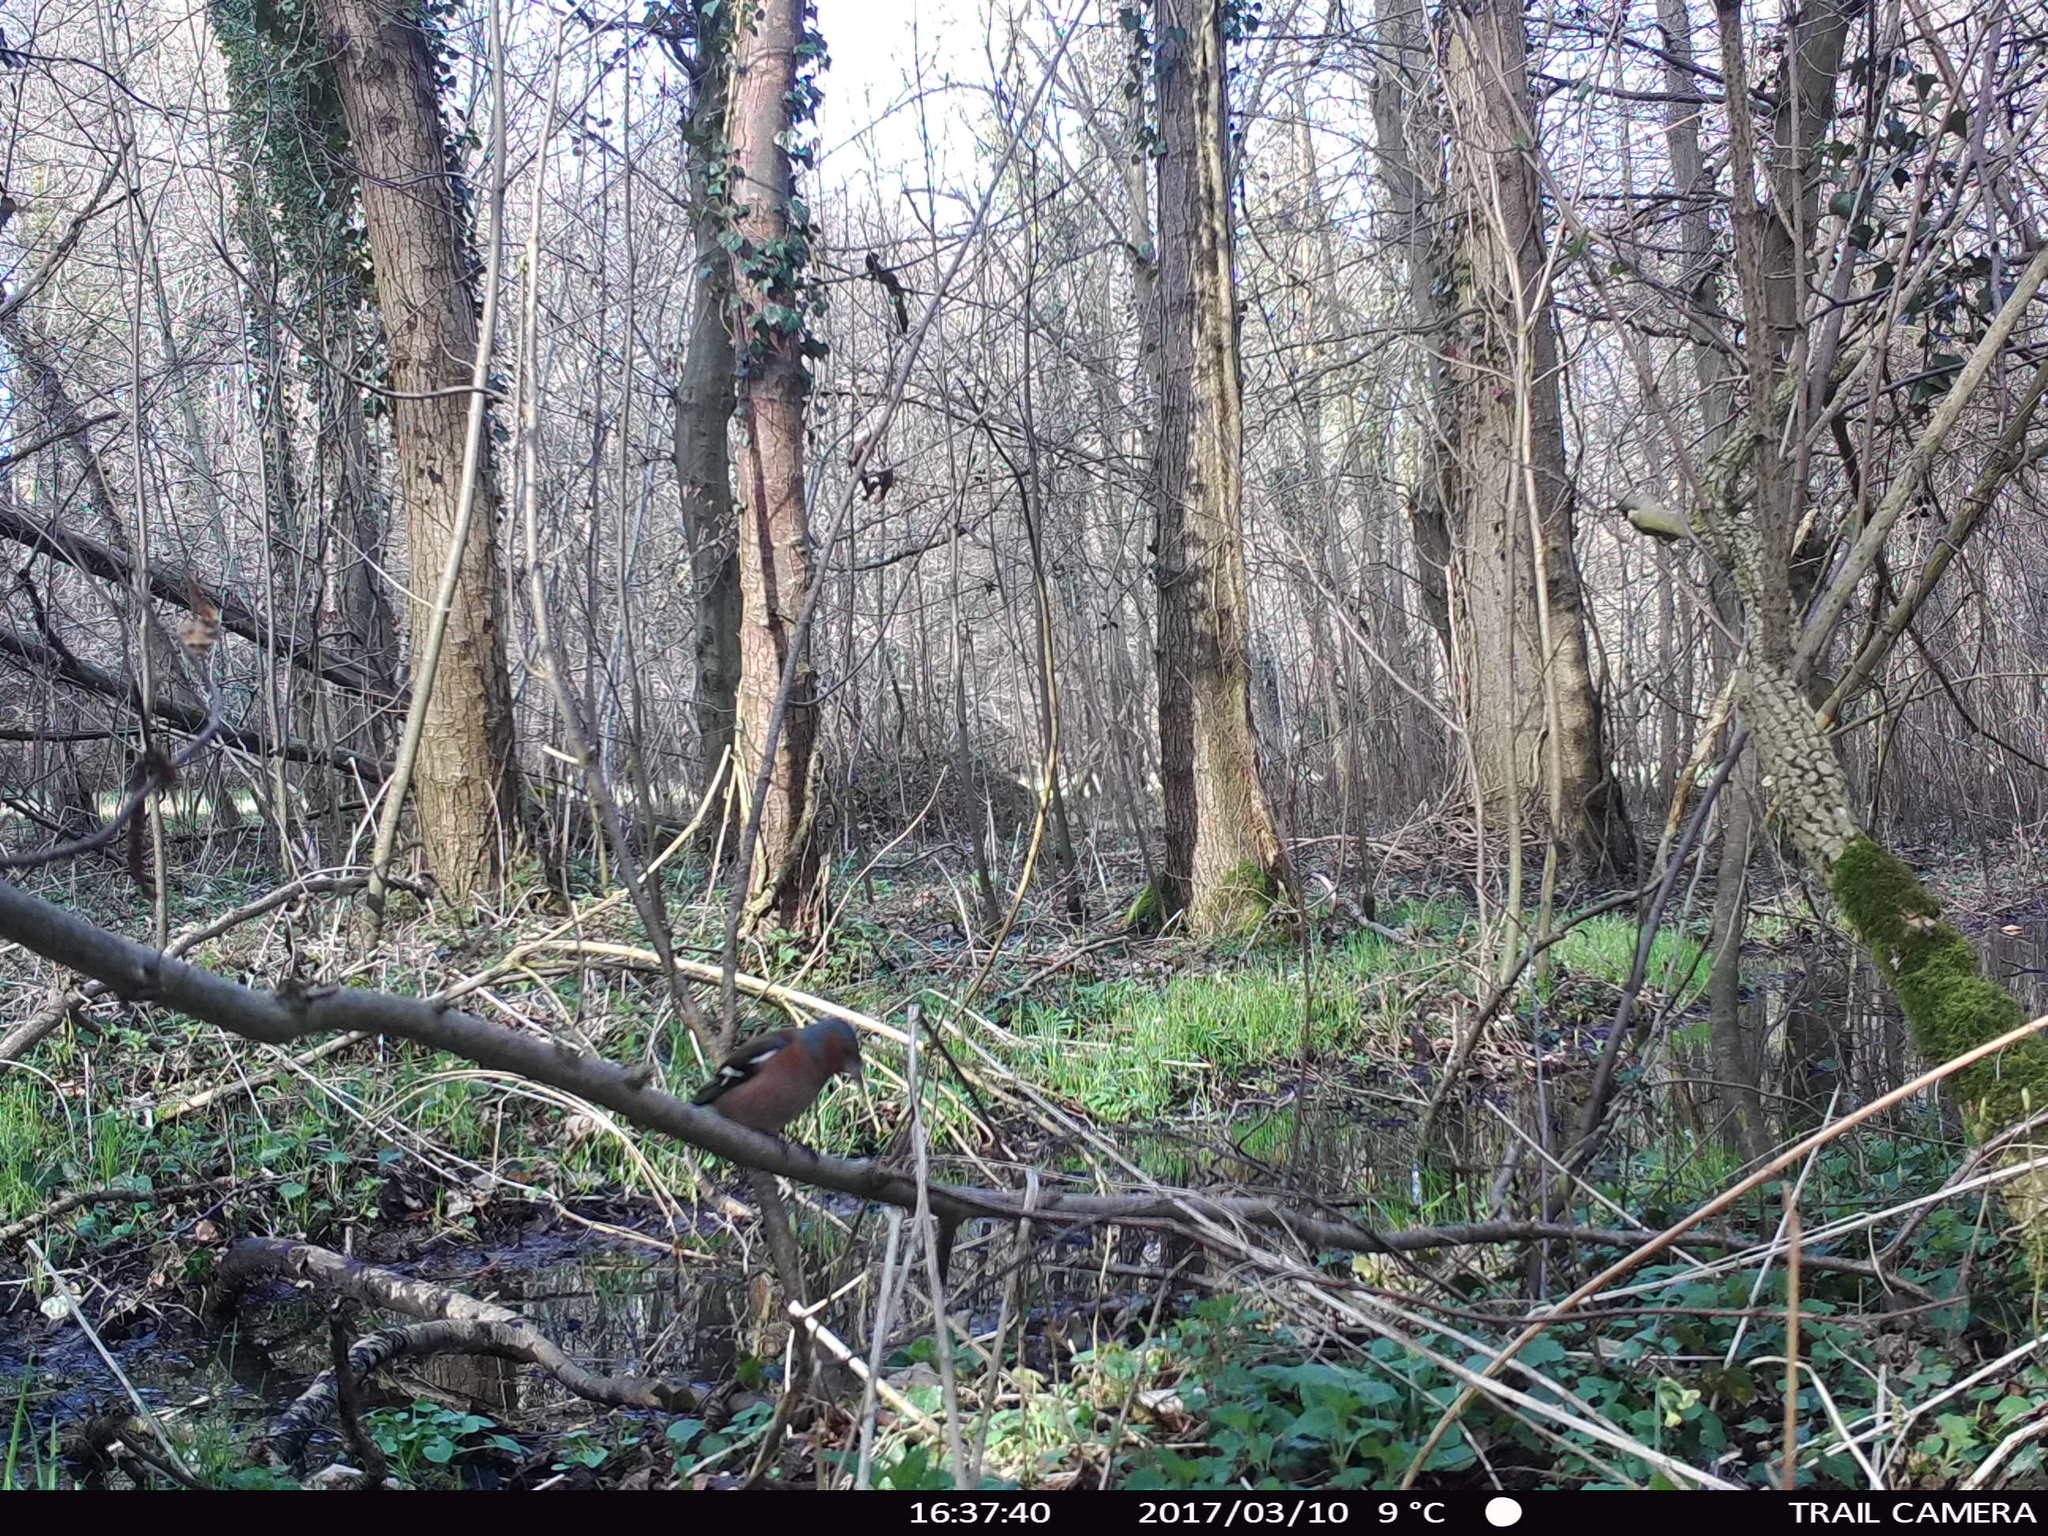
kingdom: Animalia
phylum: Chordata
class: Aves
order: Passeriformes
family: Fringillidae
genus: Fringilla
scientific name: Fringilla coelebs
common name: Common chaffinch
